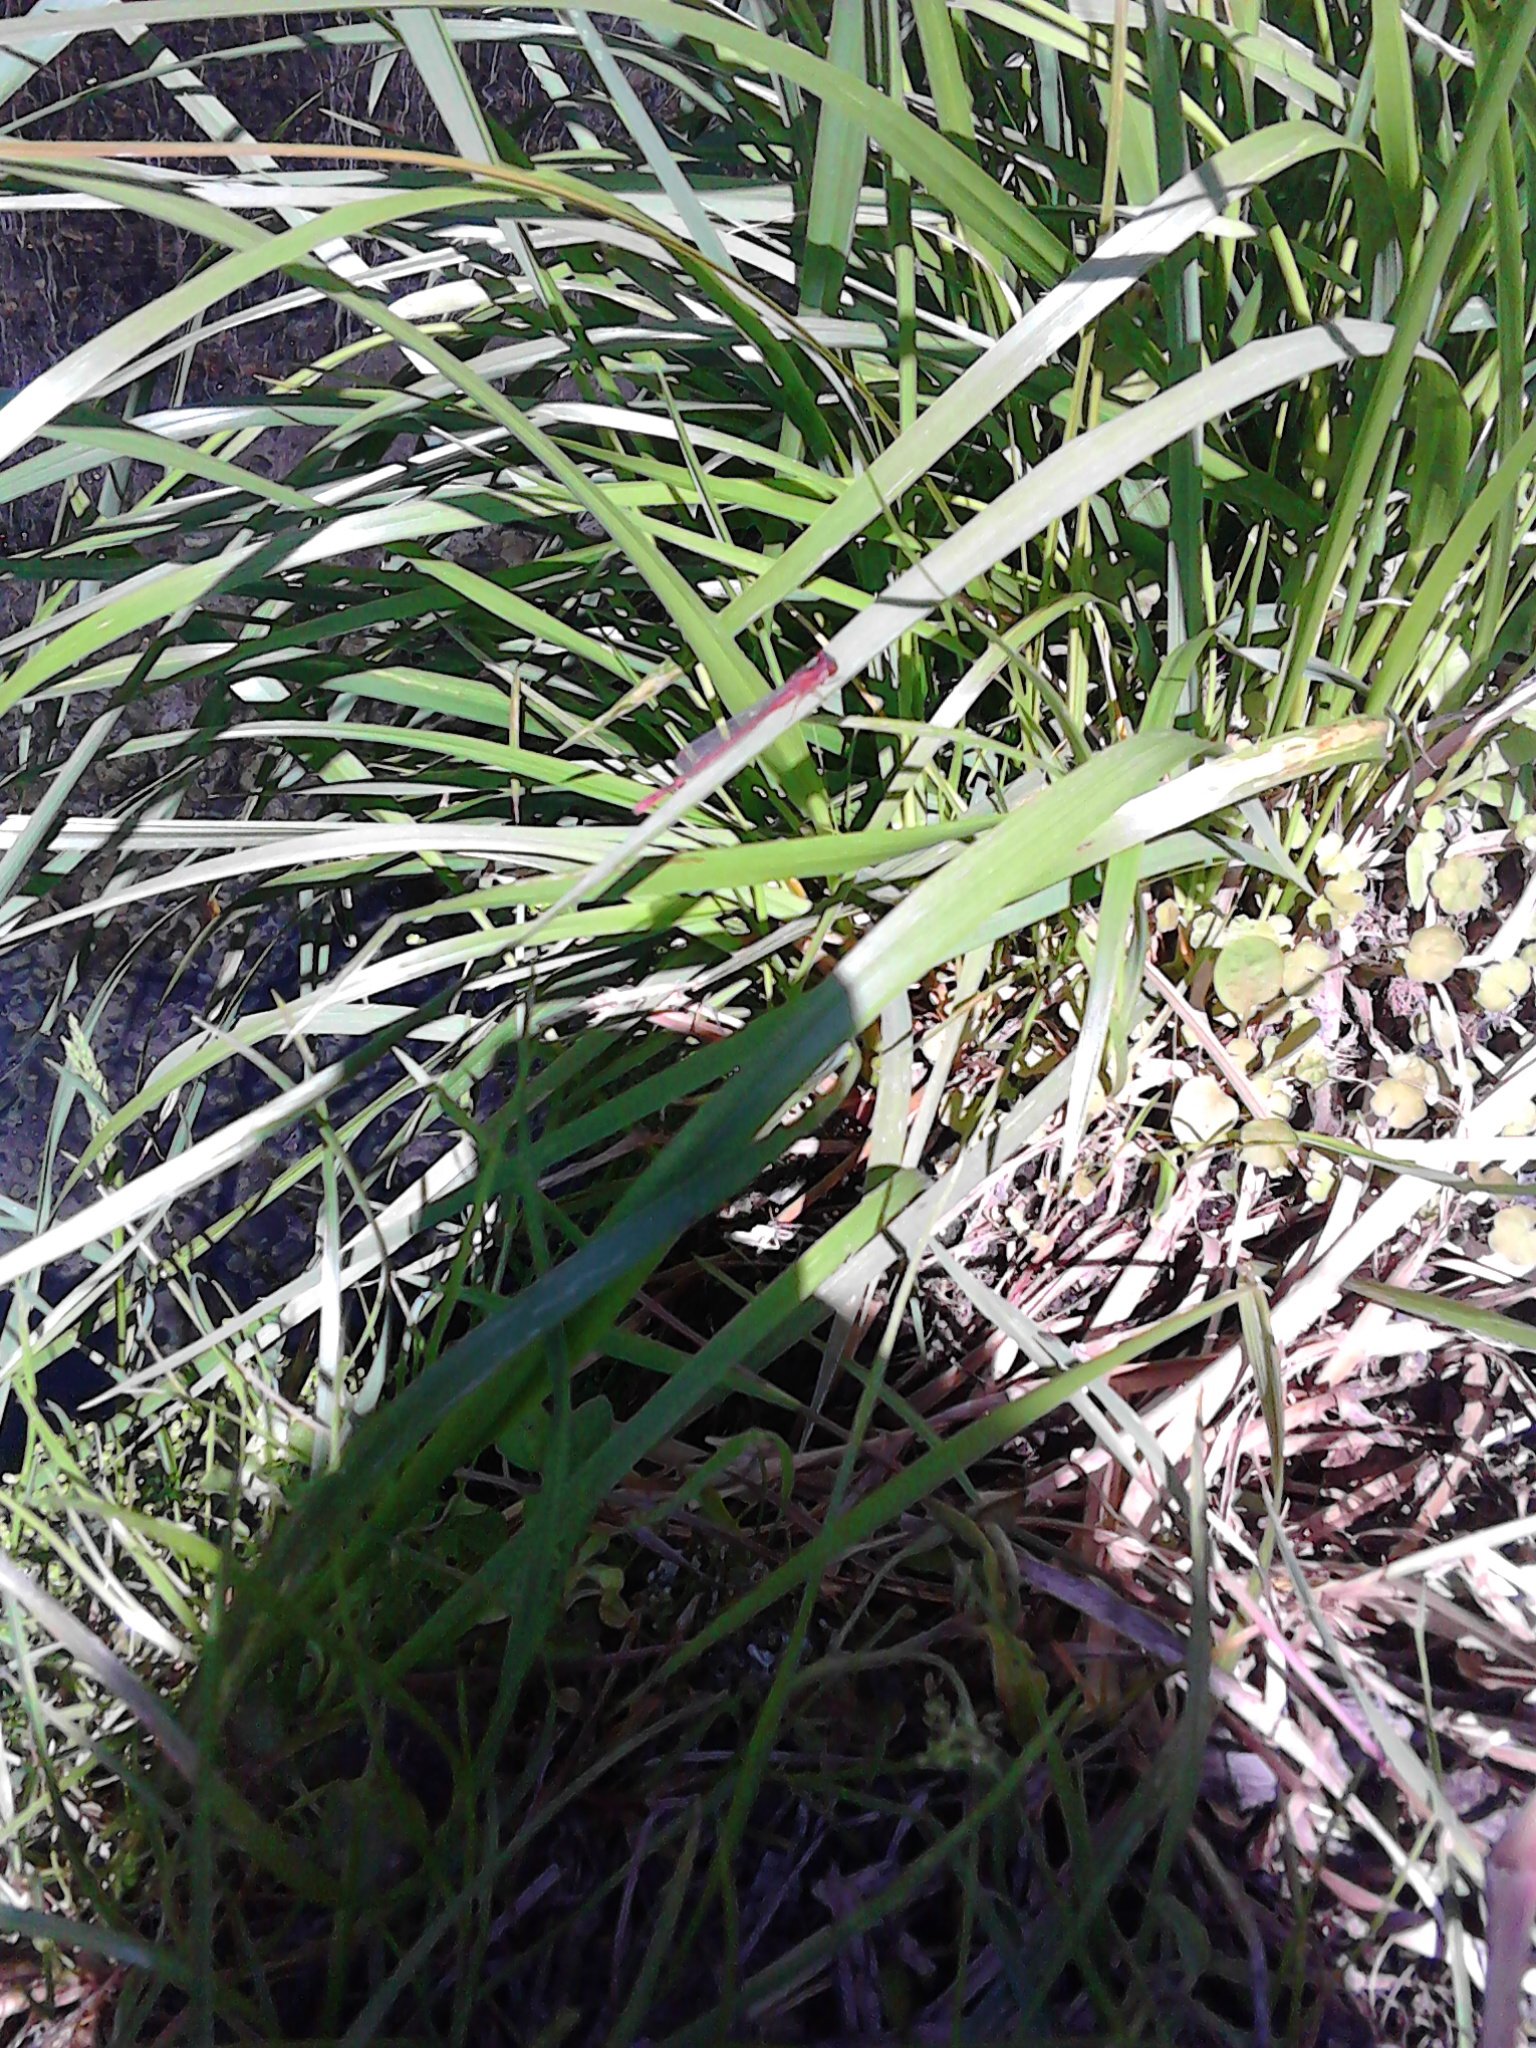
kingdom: Animalia
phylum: Arthropoda
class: Insecta
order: Odonata
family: Coenagrionidae
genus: Xanthocnemis
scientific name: Xanthocnemis zealandica
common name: Common redcoat damselfly
